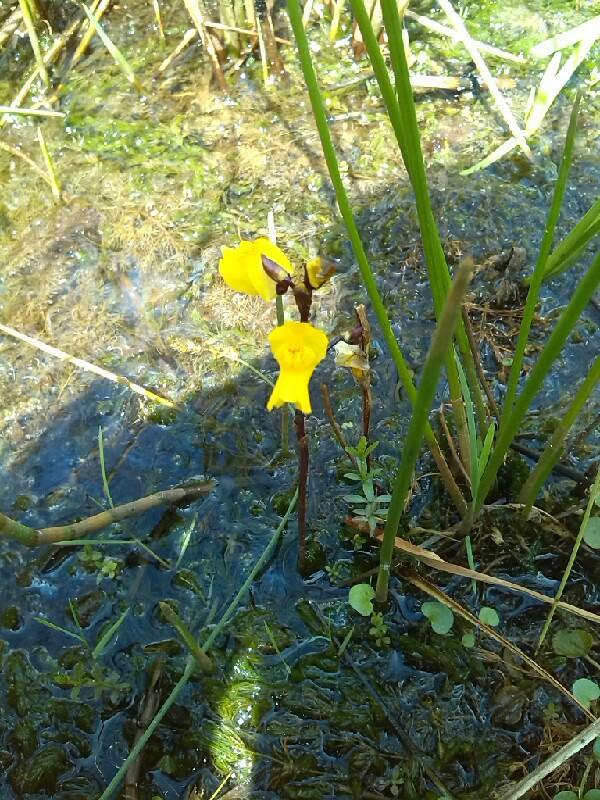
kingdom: Plantae
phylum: Tracheophyta
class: Magnoliopsida
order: Lamiales
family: Lentibulariaceae
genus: Utricularia
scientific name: Utricularia vulgaris
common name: Greater bladderwort
